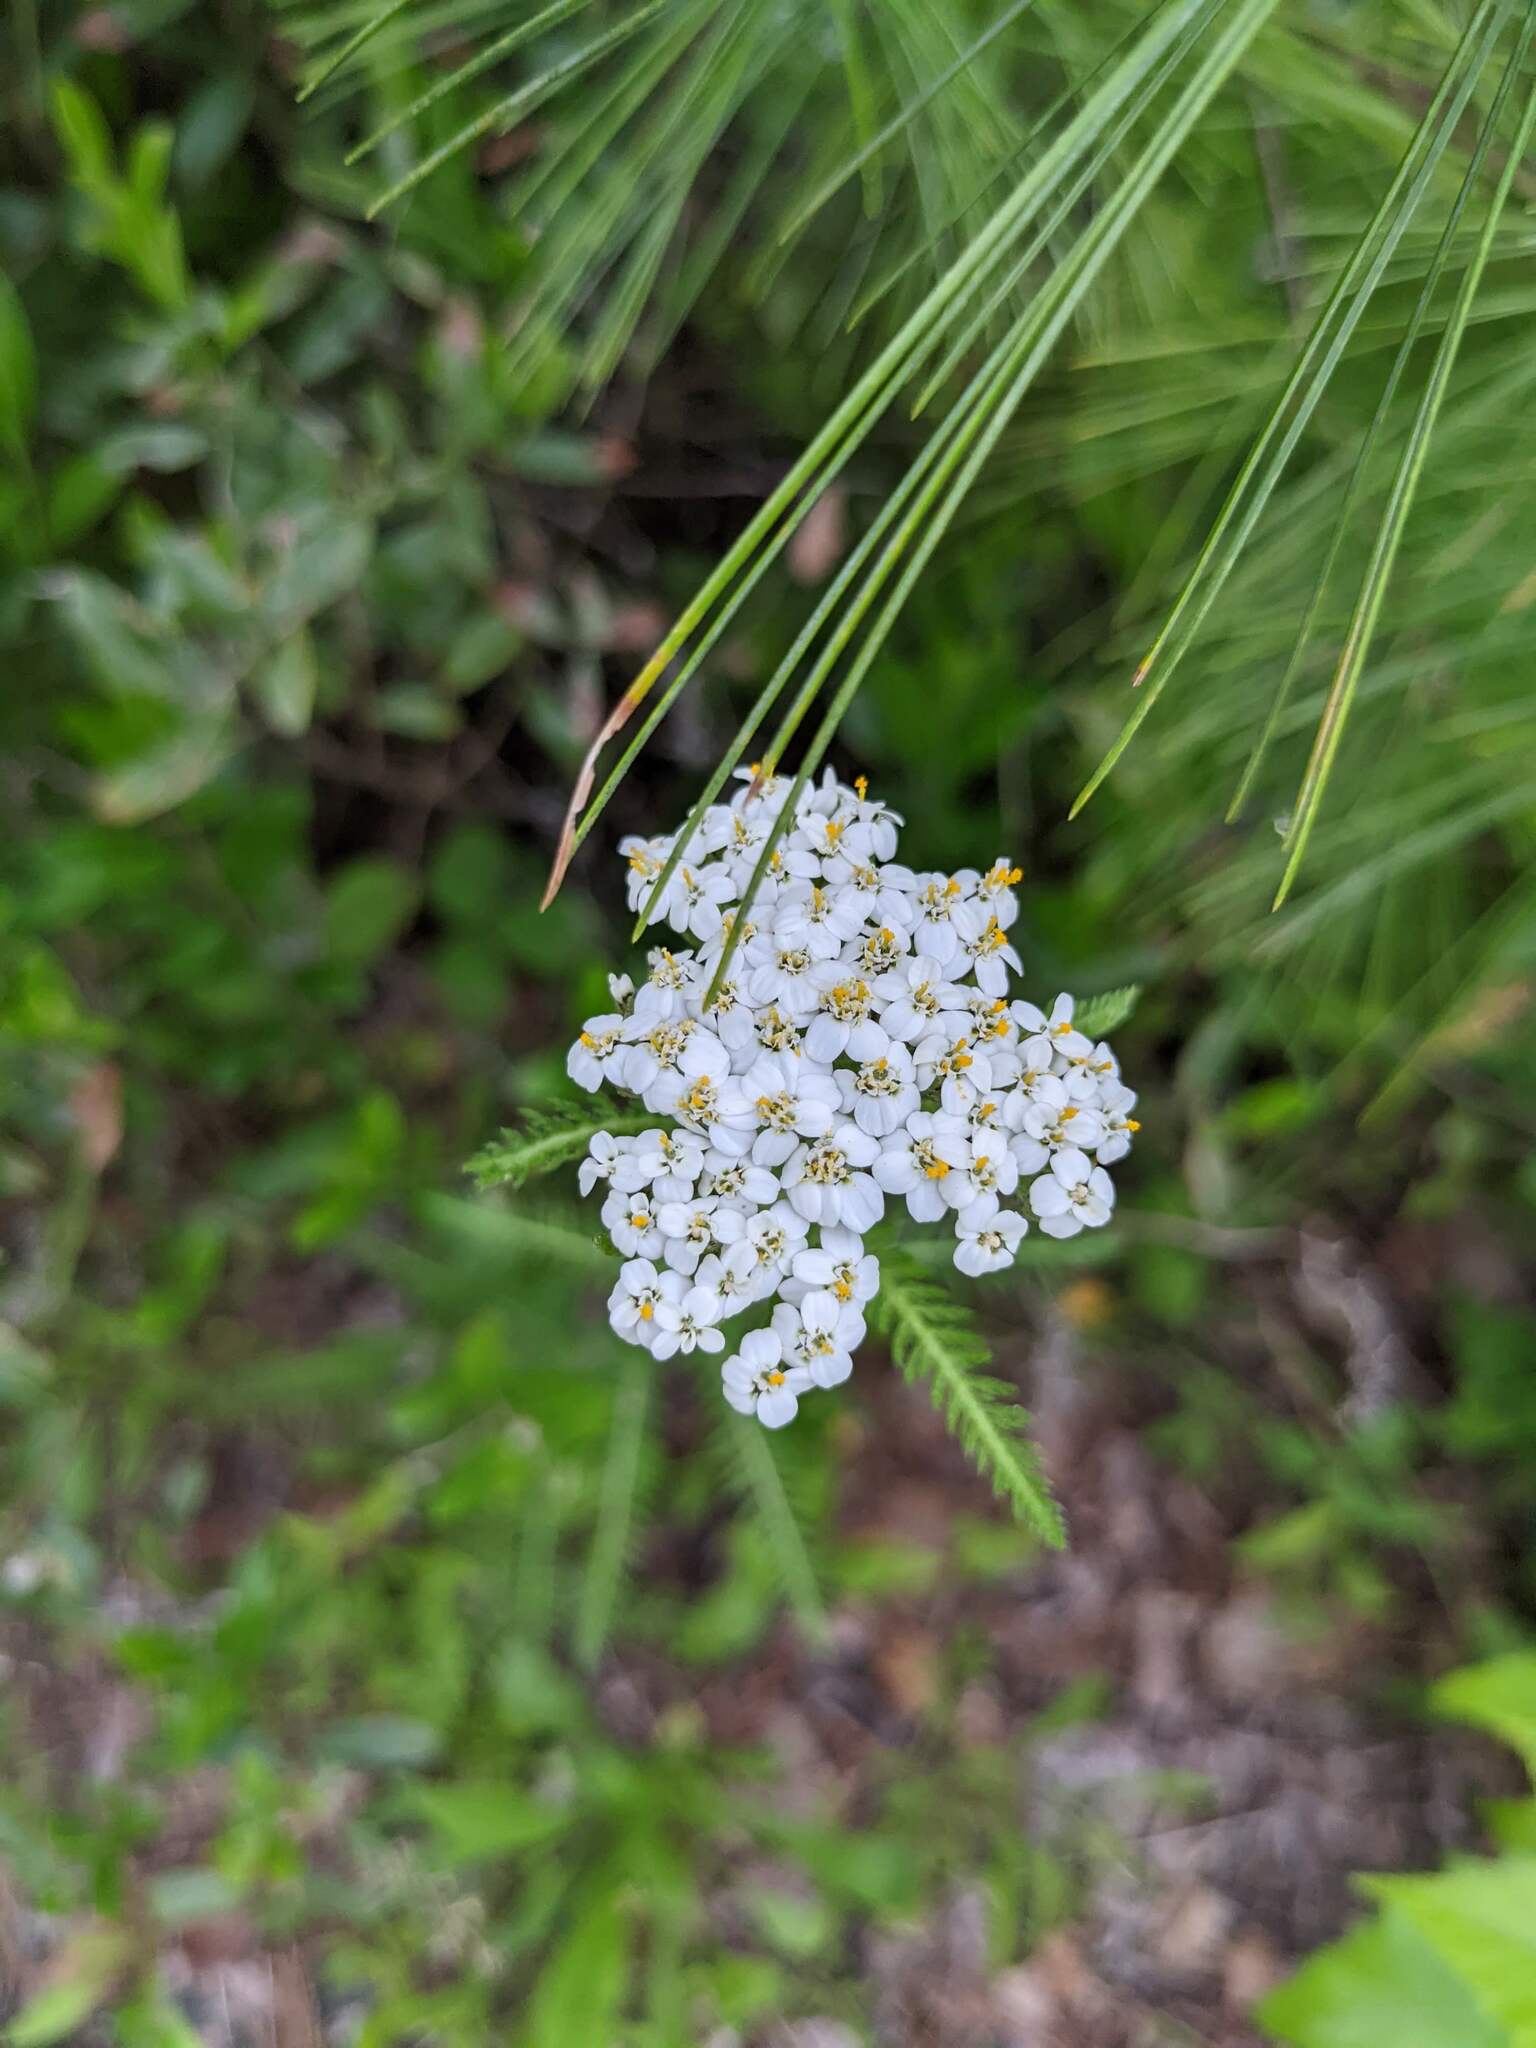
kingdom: Plantae
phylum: Tracheophyta
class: Magnoliopsida
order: Asterales
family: Asteraceae
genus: Achillea
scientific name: Achillea millefolium
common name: Yarrow
